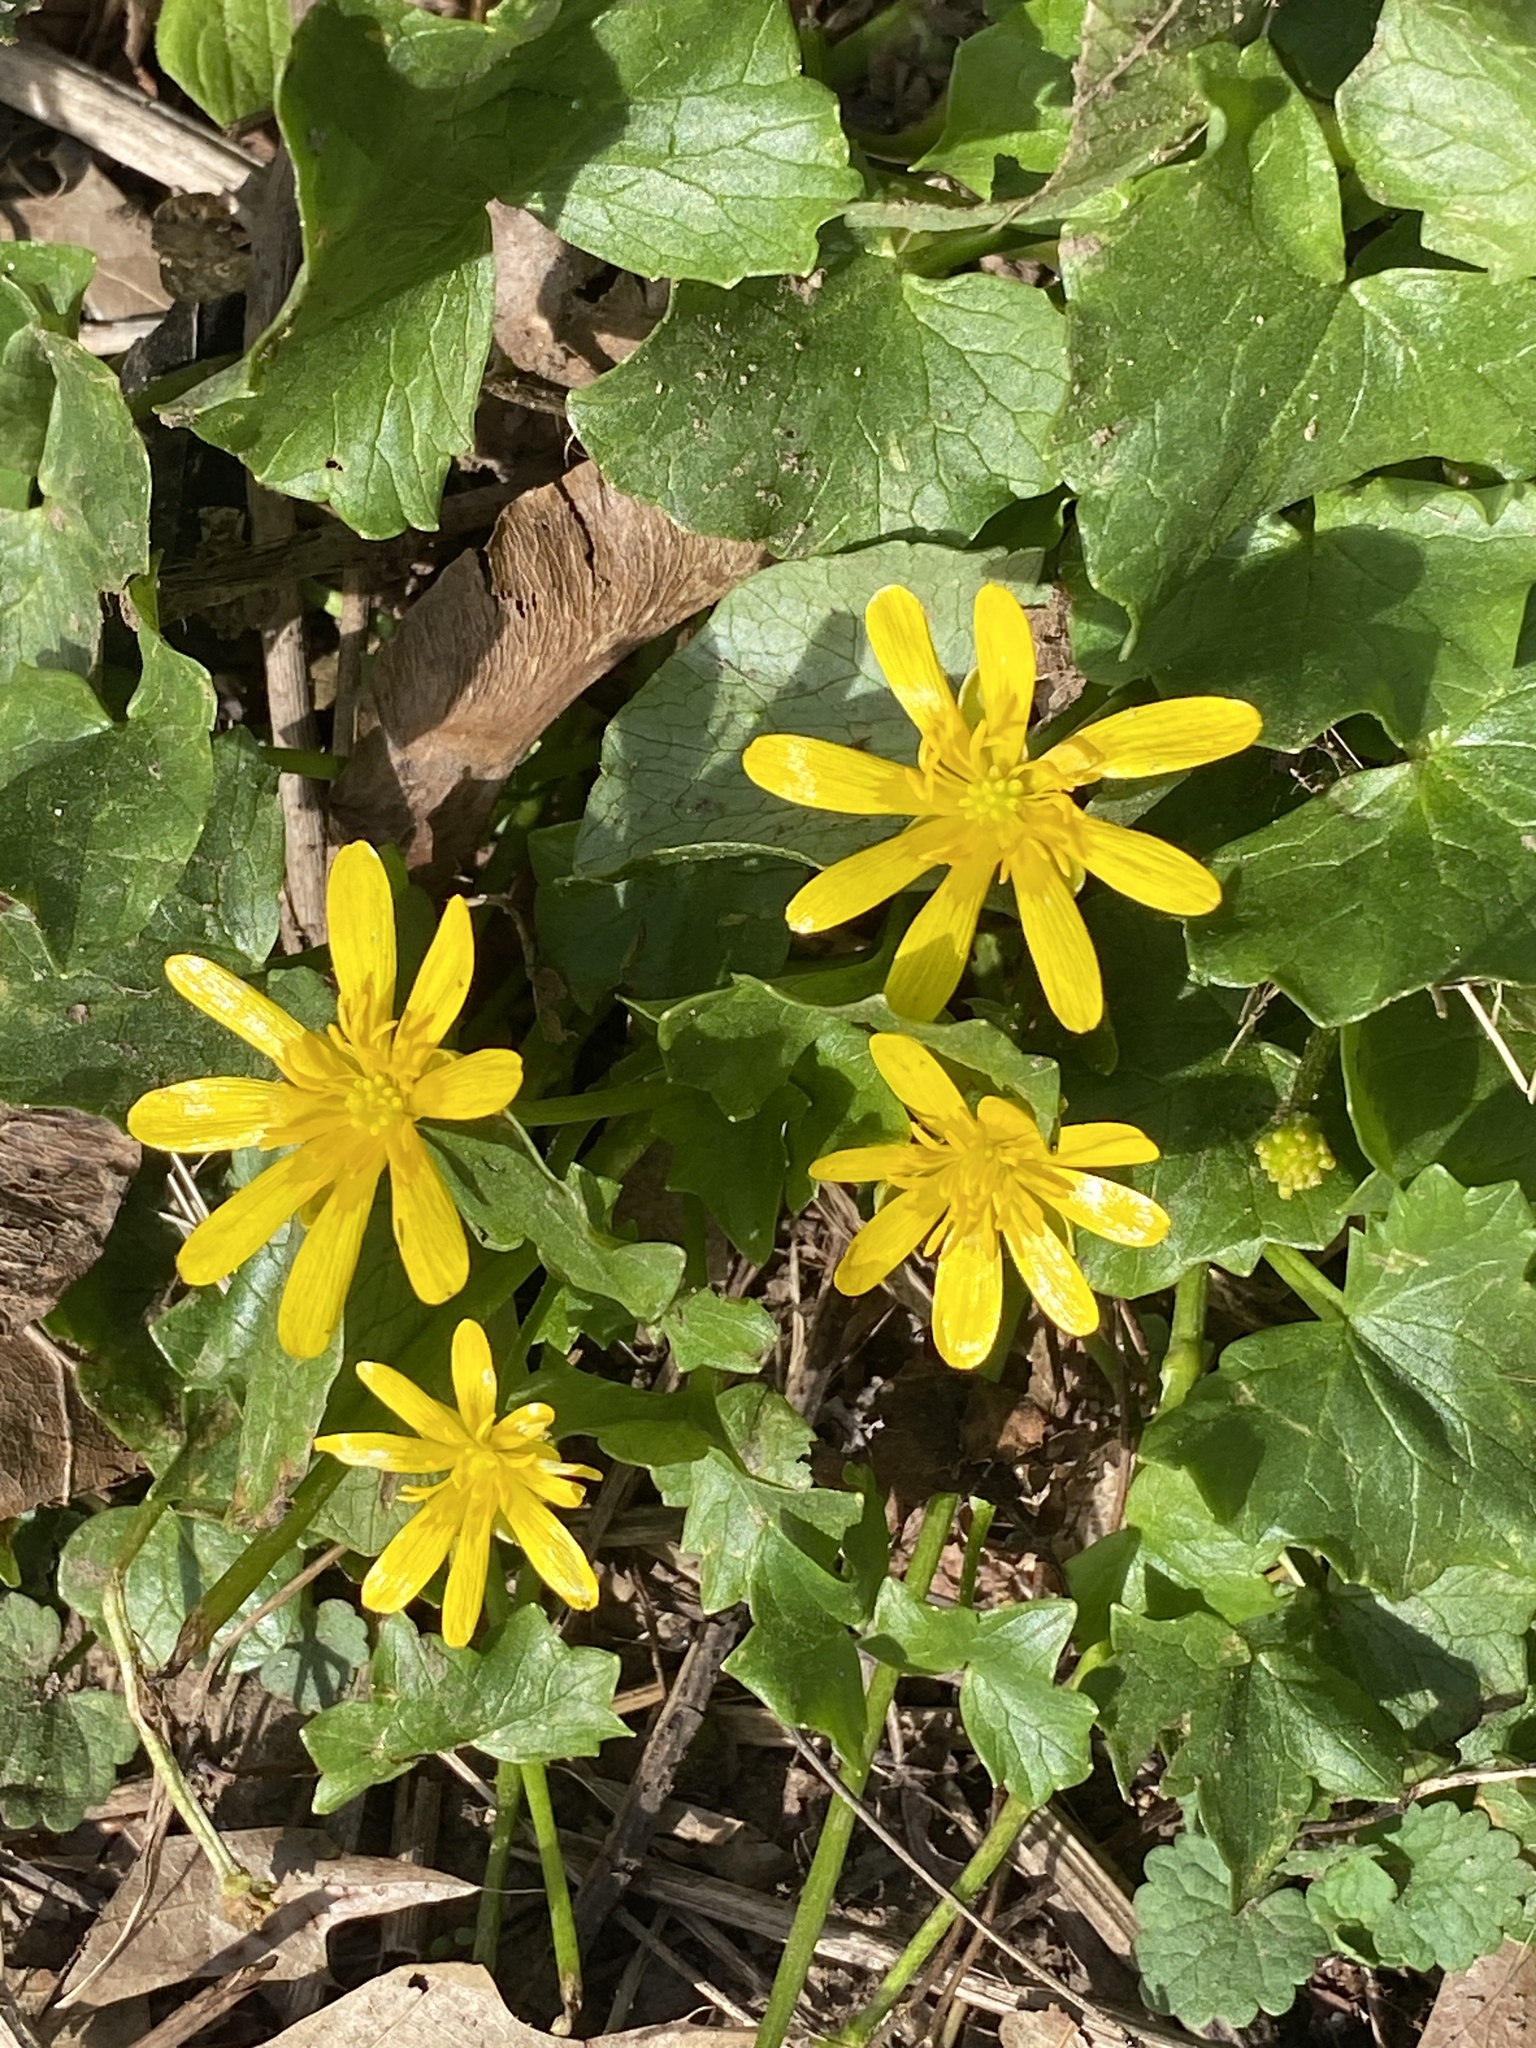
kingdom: Plantae
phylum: Tracheophyta
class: Magnoliopsida
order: Ranunculales
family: Ranunculaceae
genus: Ficaria
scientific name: Ficaria verna
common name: Lesser celandine
